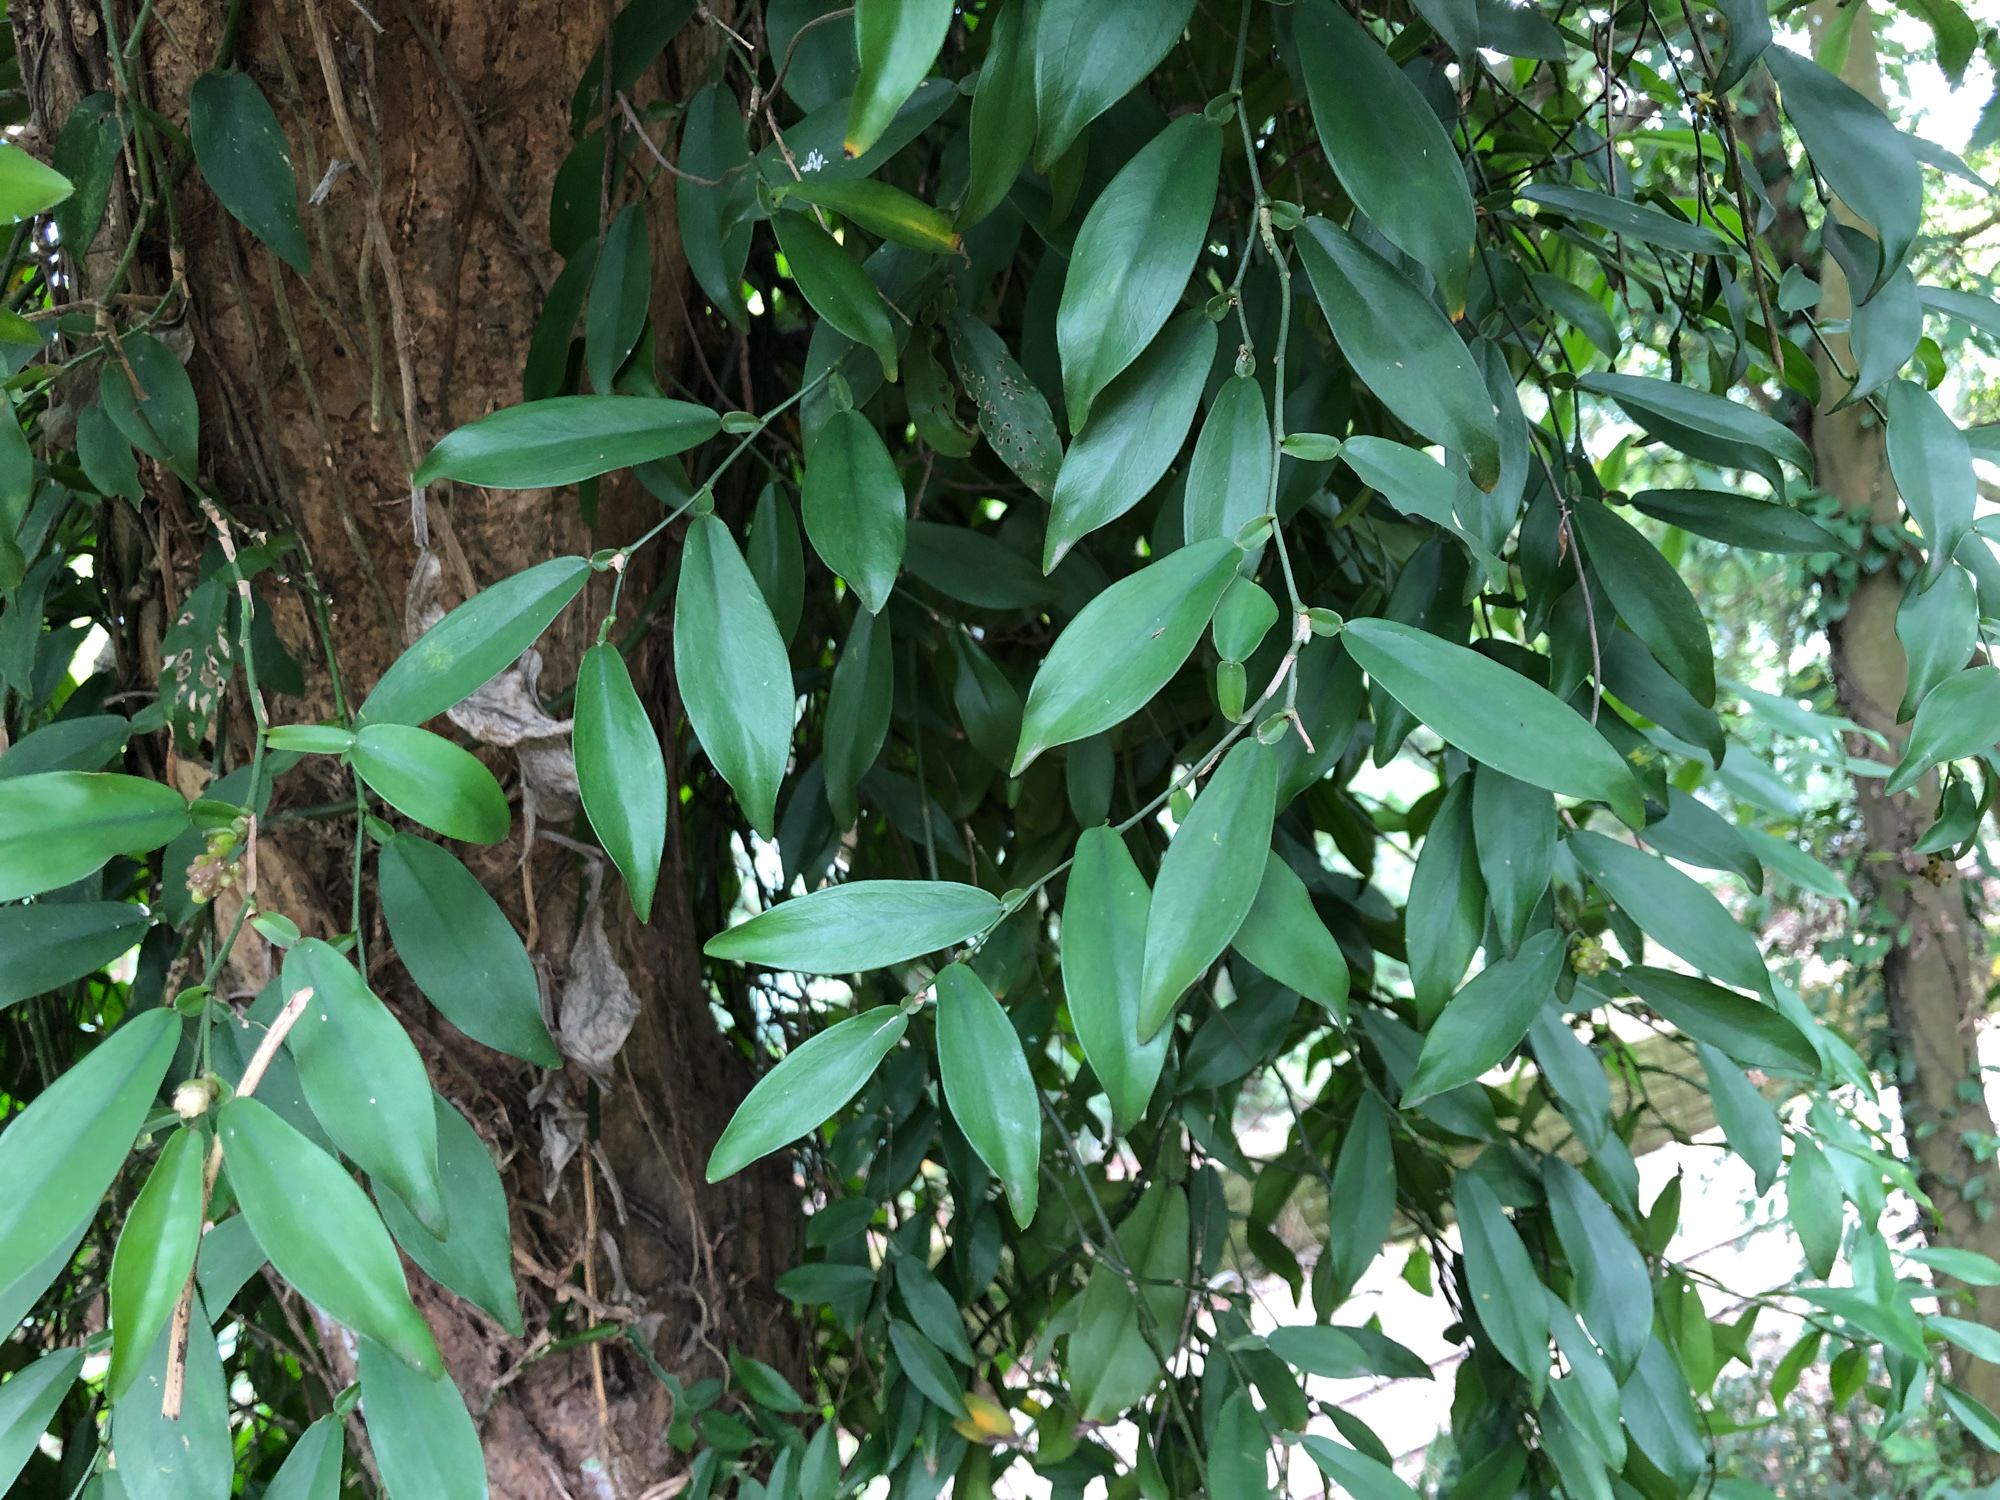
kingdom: Plantae
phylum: Tracheophyta
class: Liliopsida
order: Alismatales
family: Araceae
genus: Pothos
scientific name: Pothos chinensis
